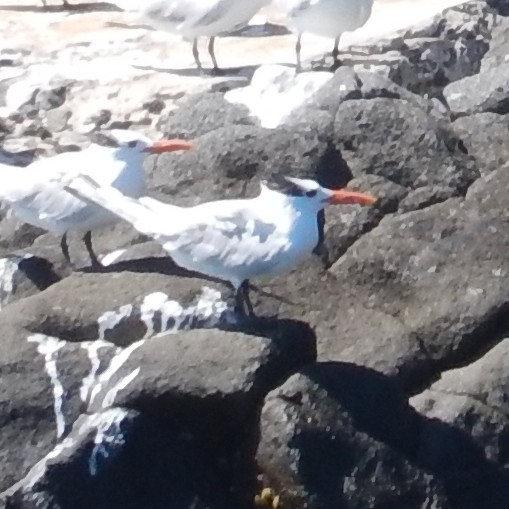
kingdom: Animalia
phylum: Chordata
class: Aves
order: Charadriiformes
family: Laridae
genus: Thalasseus
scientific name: Thalasseus maximus
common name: Royal tern
